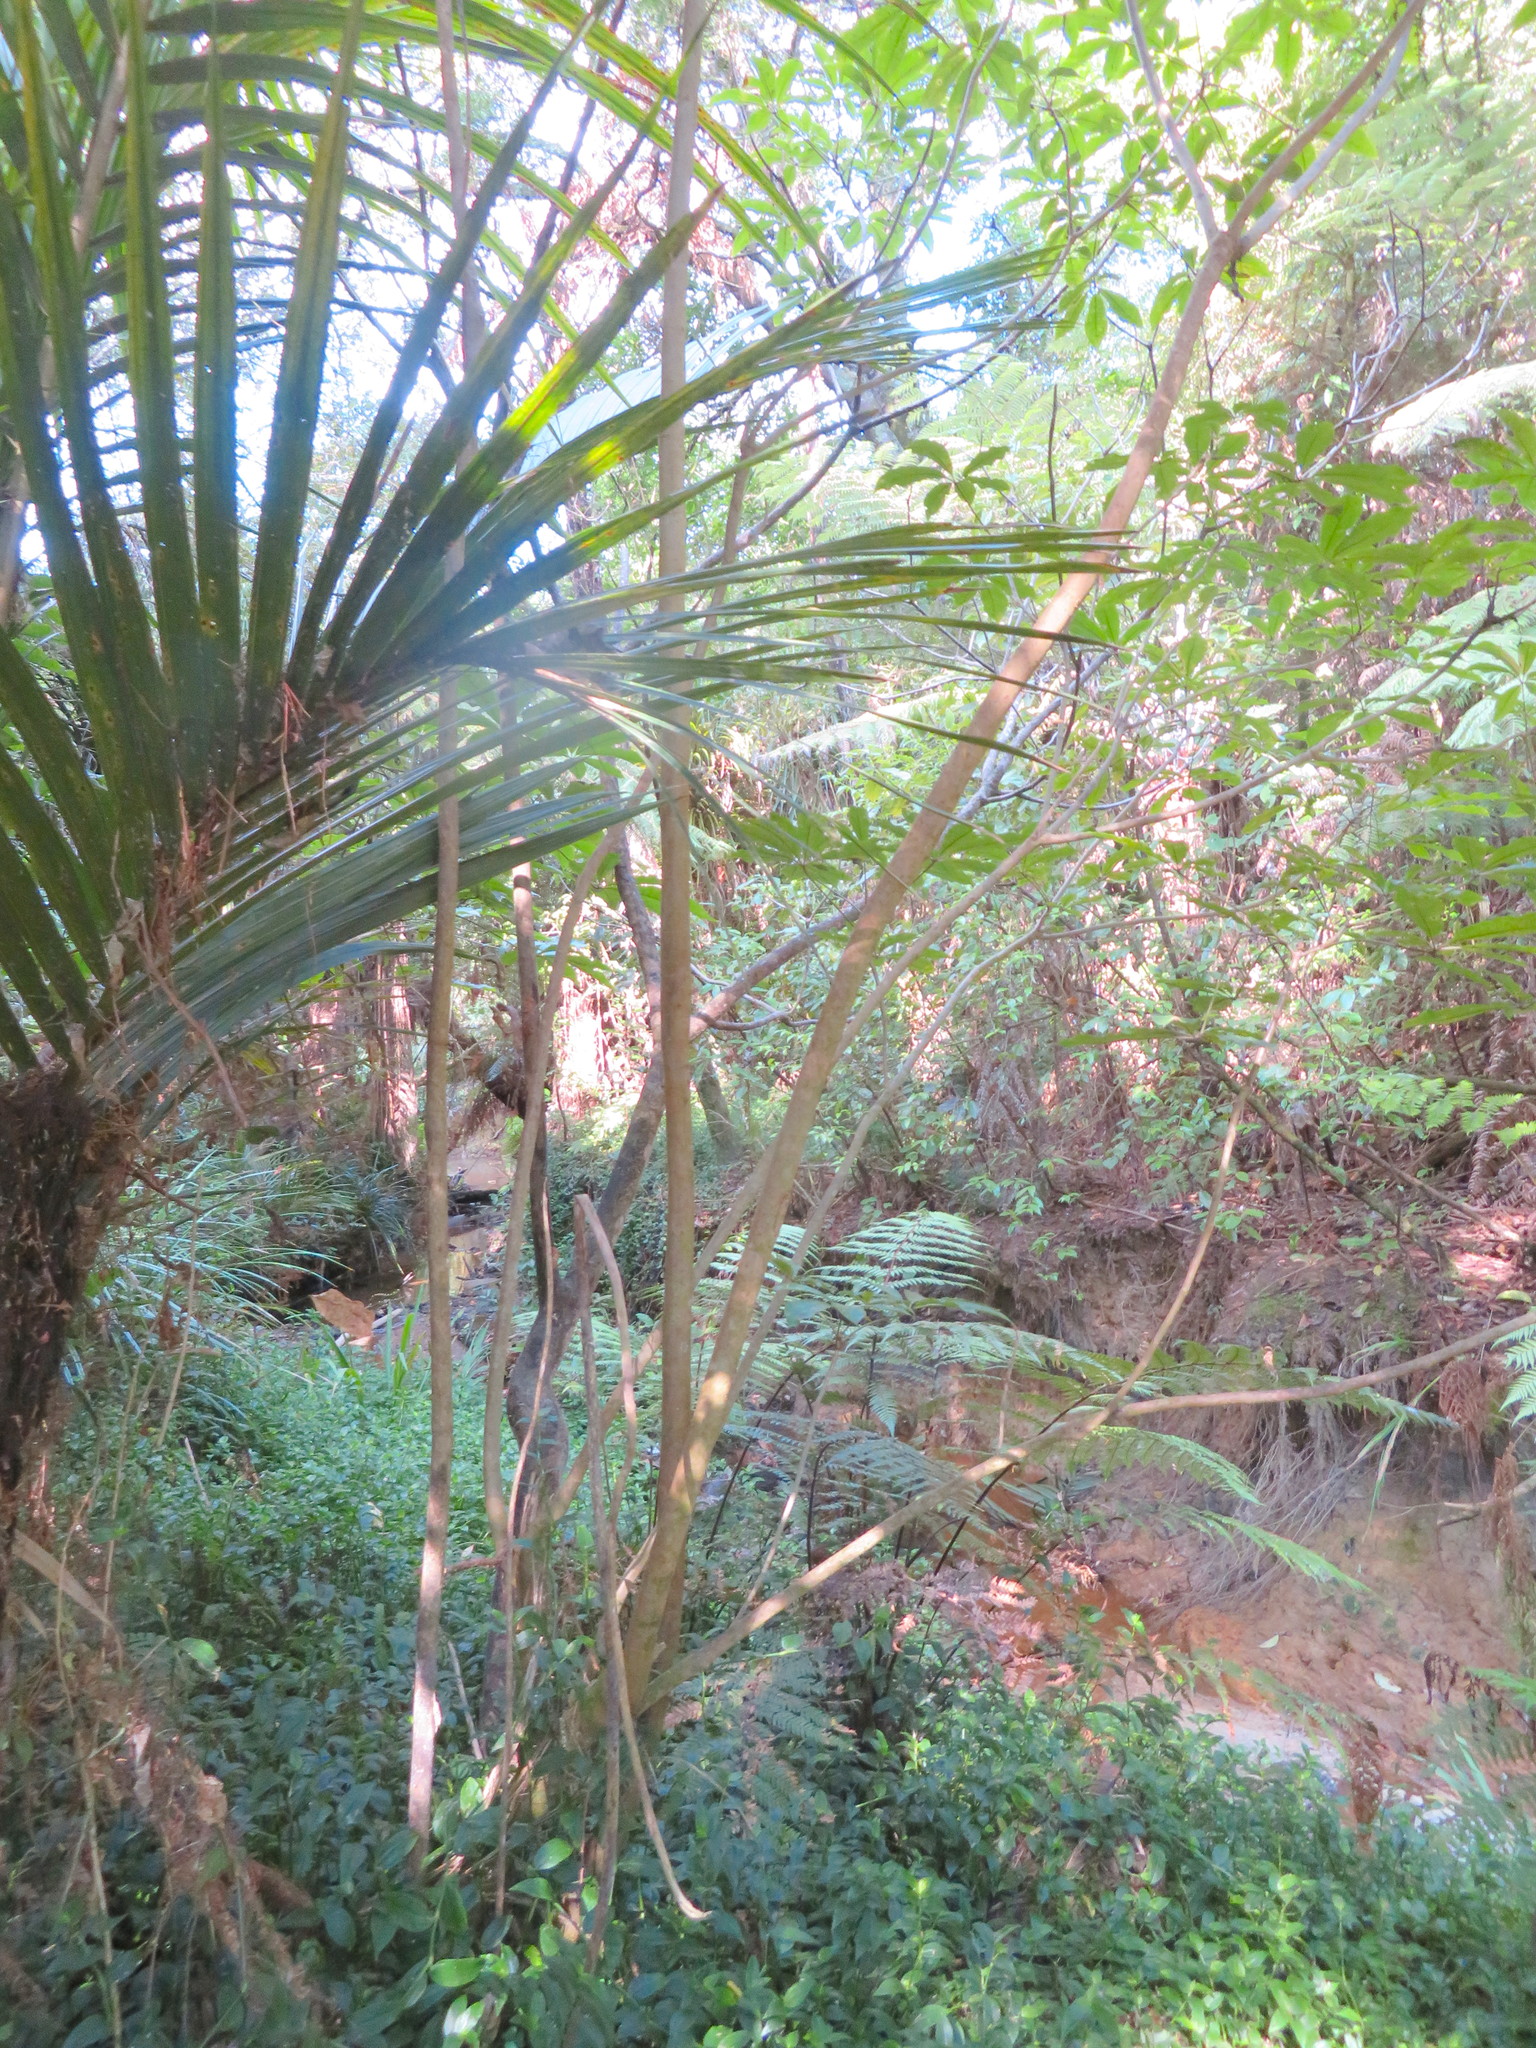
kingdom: Plantae
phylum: Tracheophyta
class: Liliopsida
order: Arecales
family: Arecaceae
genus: Rhopalostylis
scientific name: Rhopalostylis sapida
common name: Feather-duster palm
